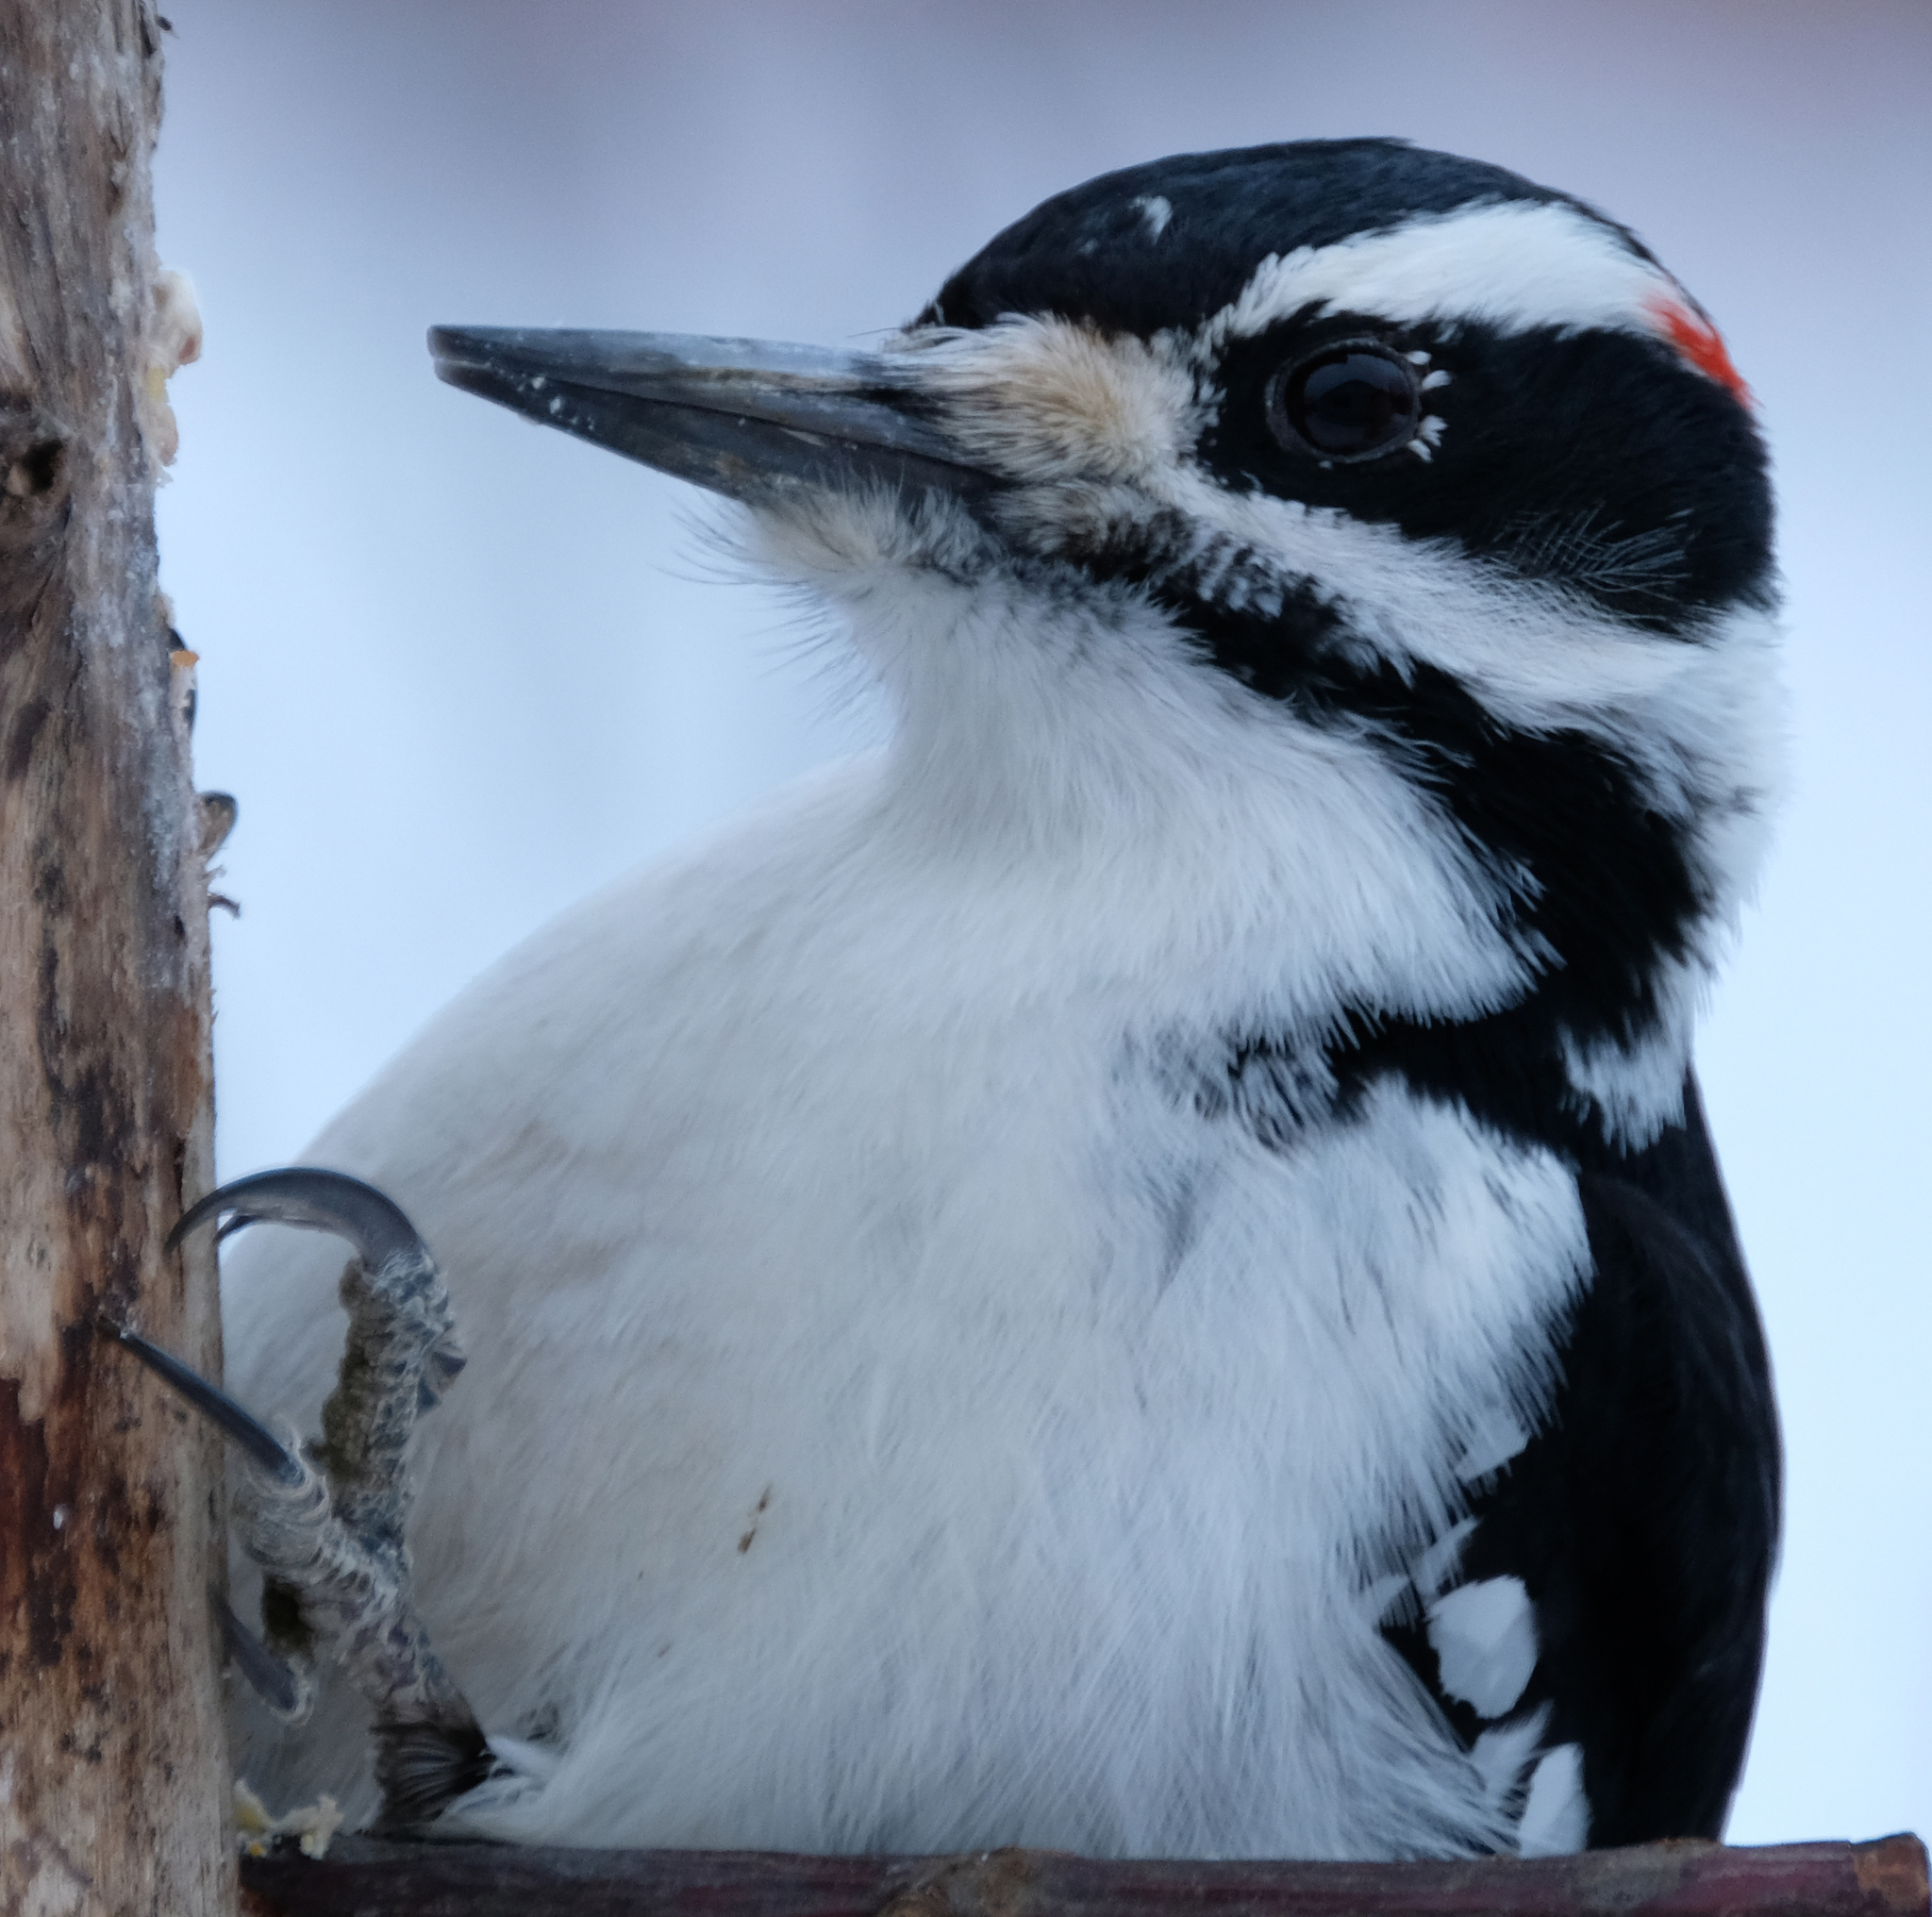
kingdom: Animalia
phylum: Chordata
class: Aves
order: Piciformes
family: Picidae
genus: Leuconotopicus
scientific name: Leuconotopicus villosus
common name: Hairy woodpecker
